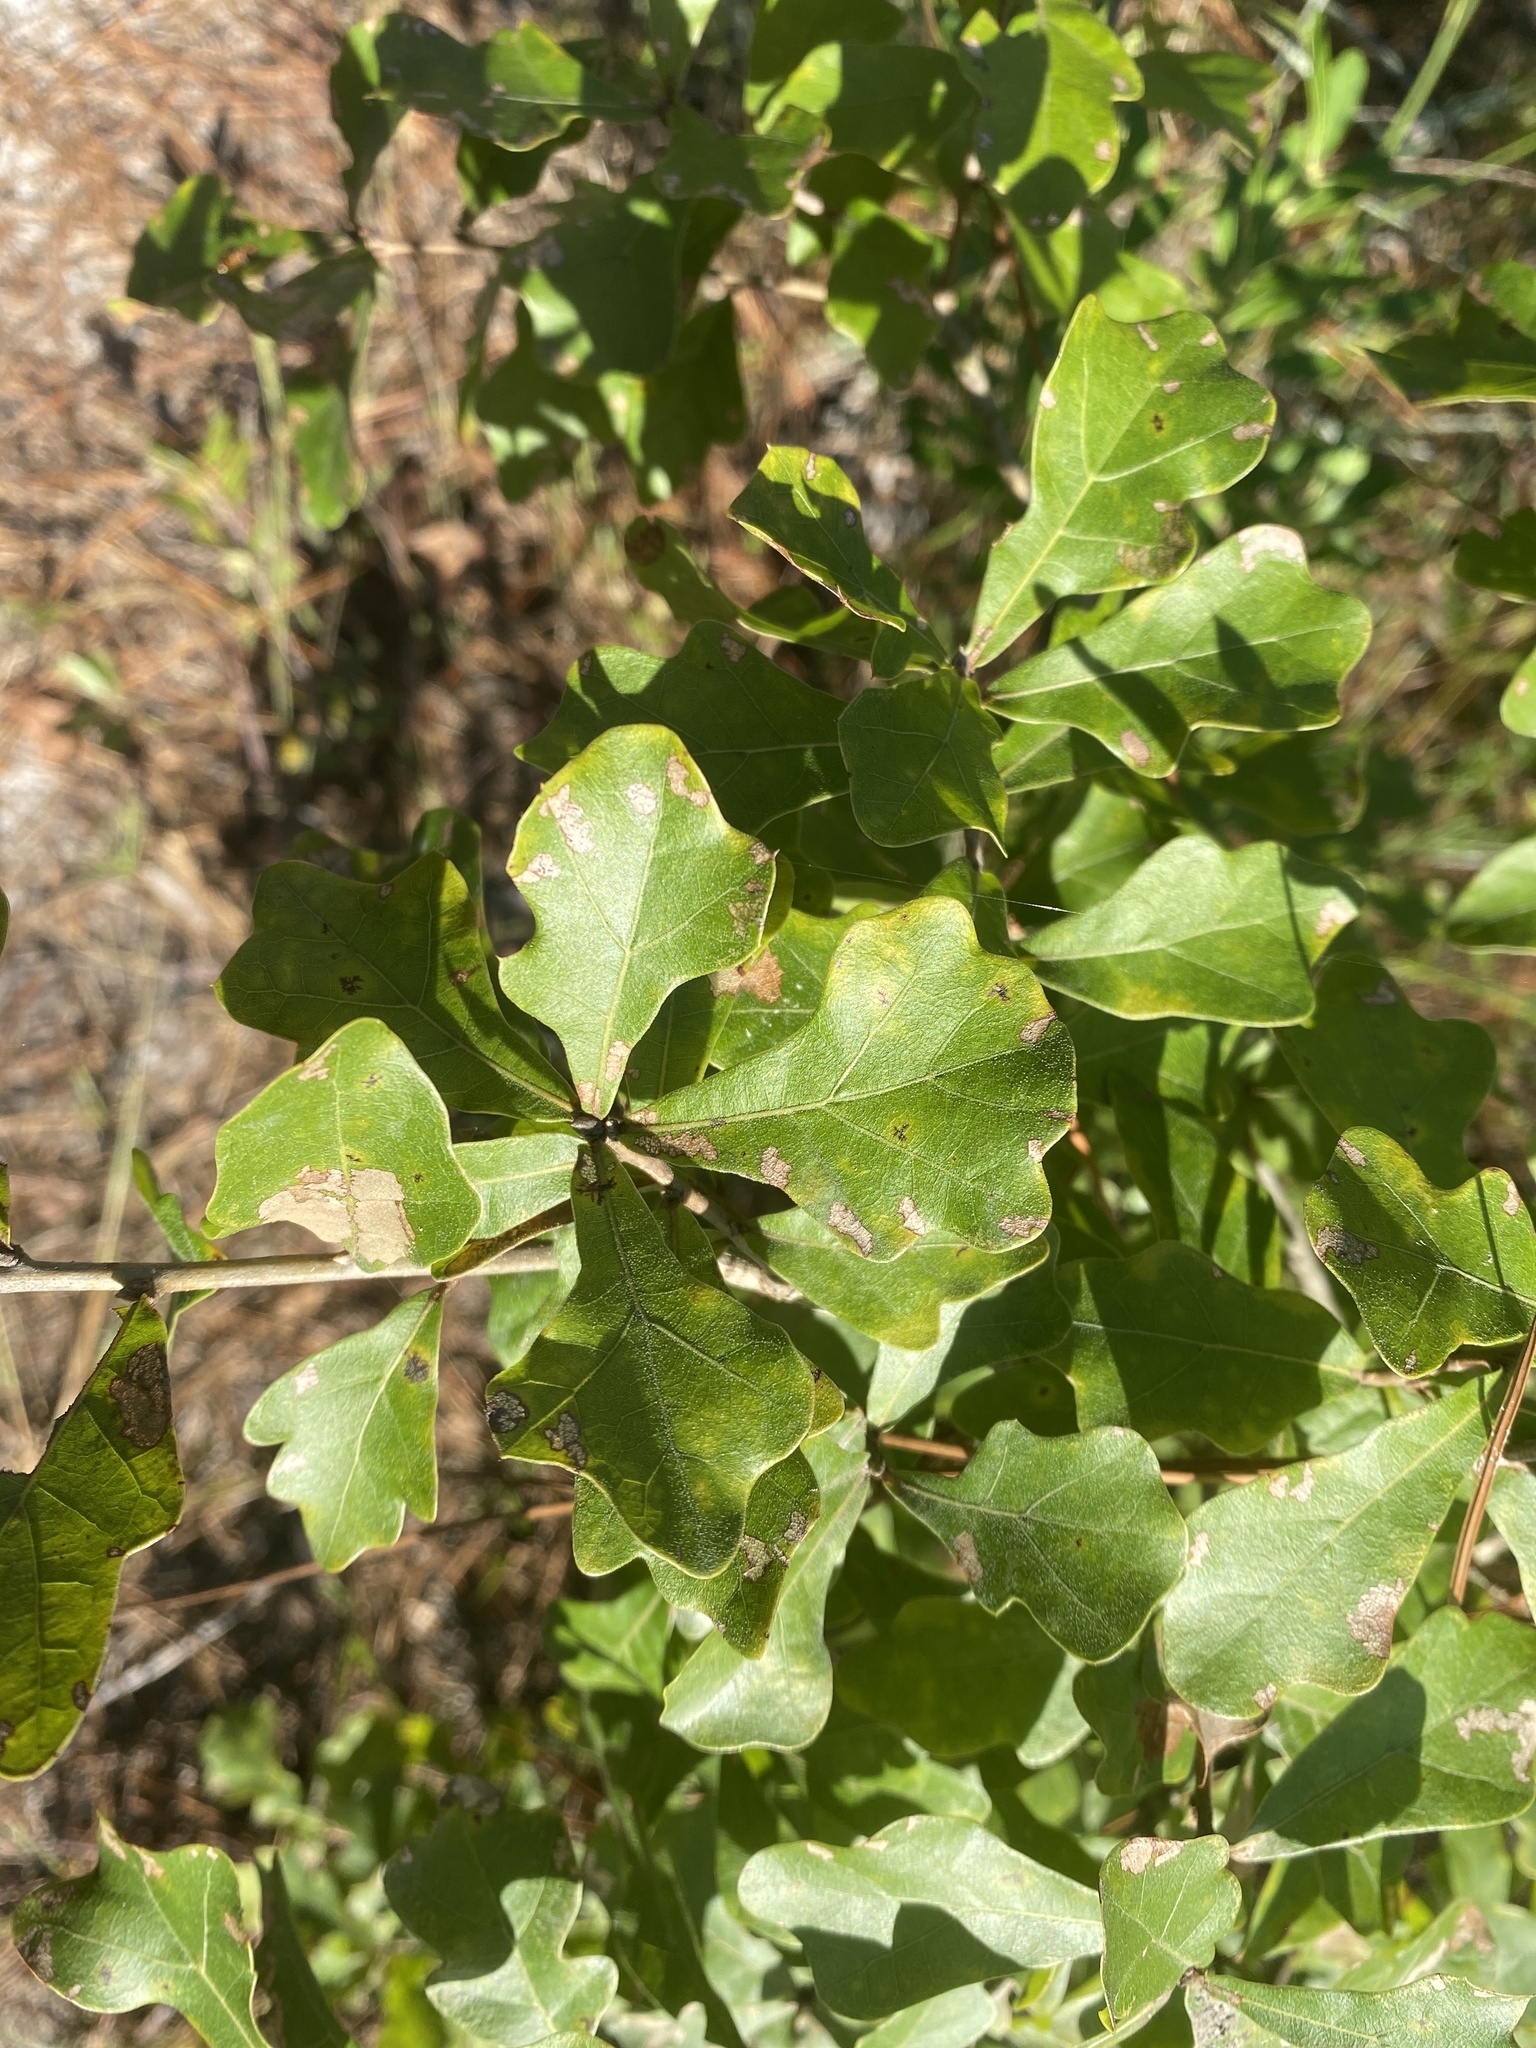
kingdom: Plantae
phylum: Tracheophyta
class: Magnoliopsida
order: Fagales
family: Fagaceae
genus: Quercus
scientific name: Quercus nigra
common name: Water oak
